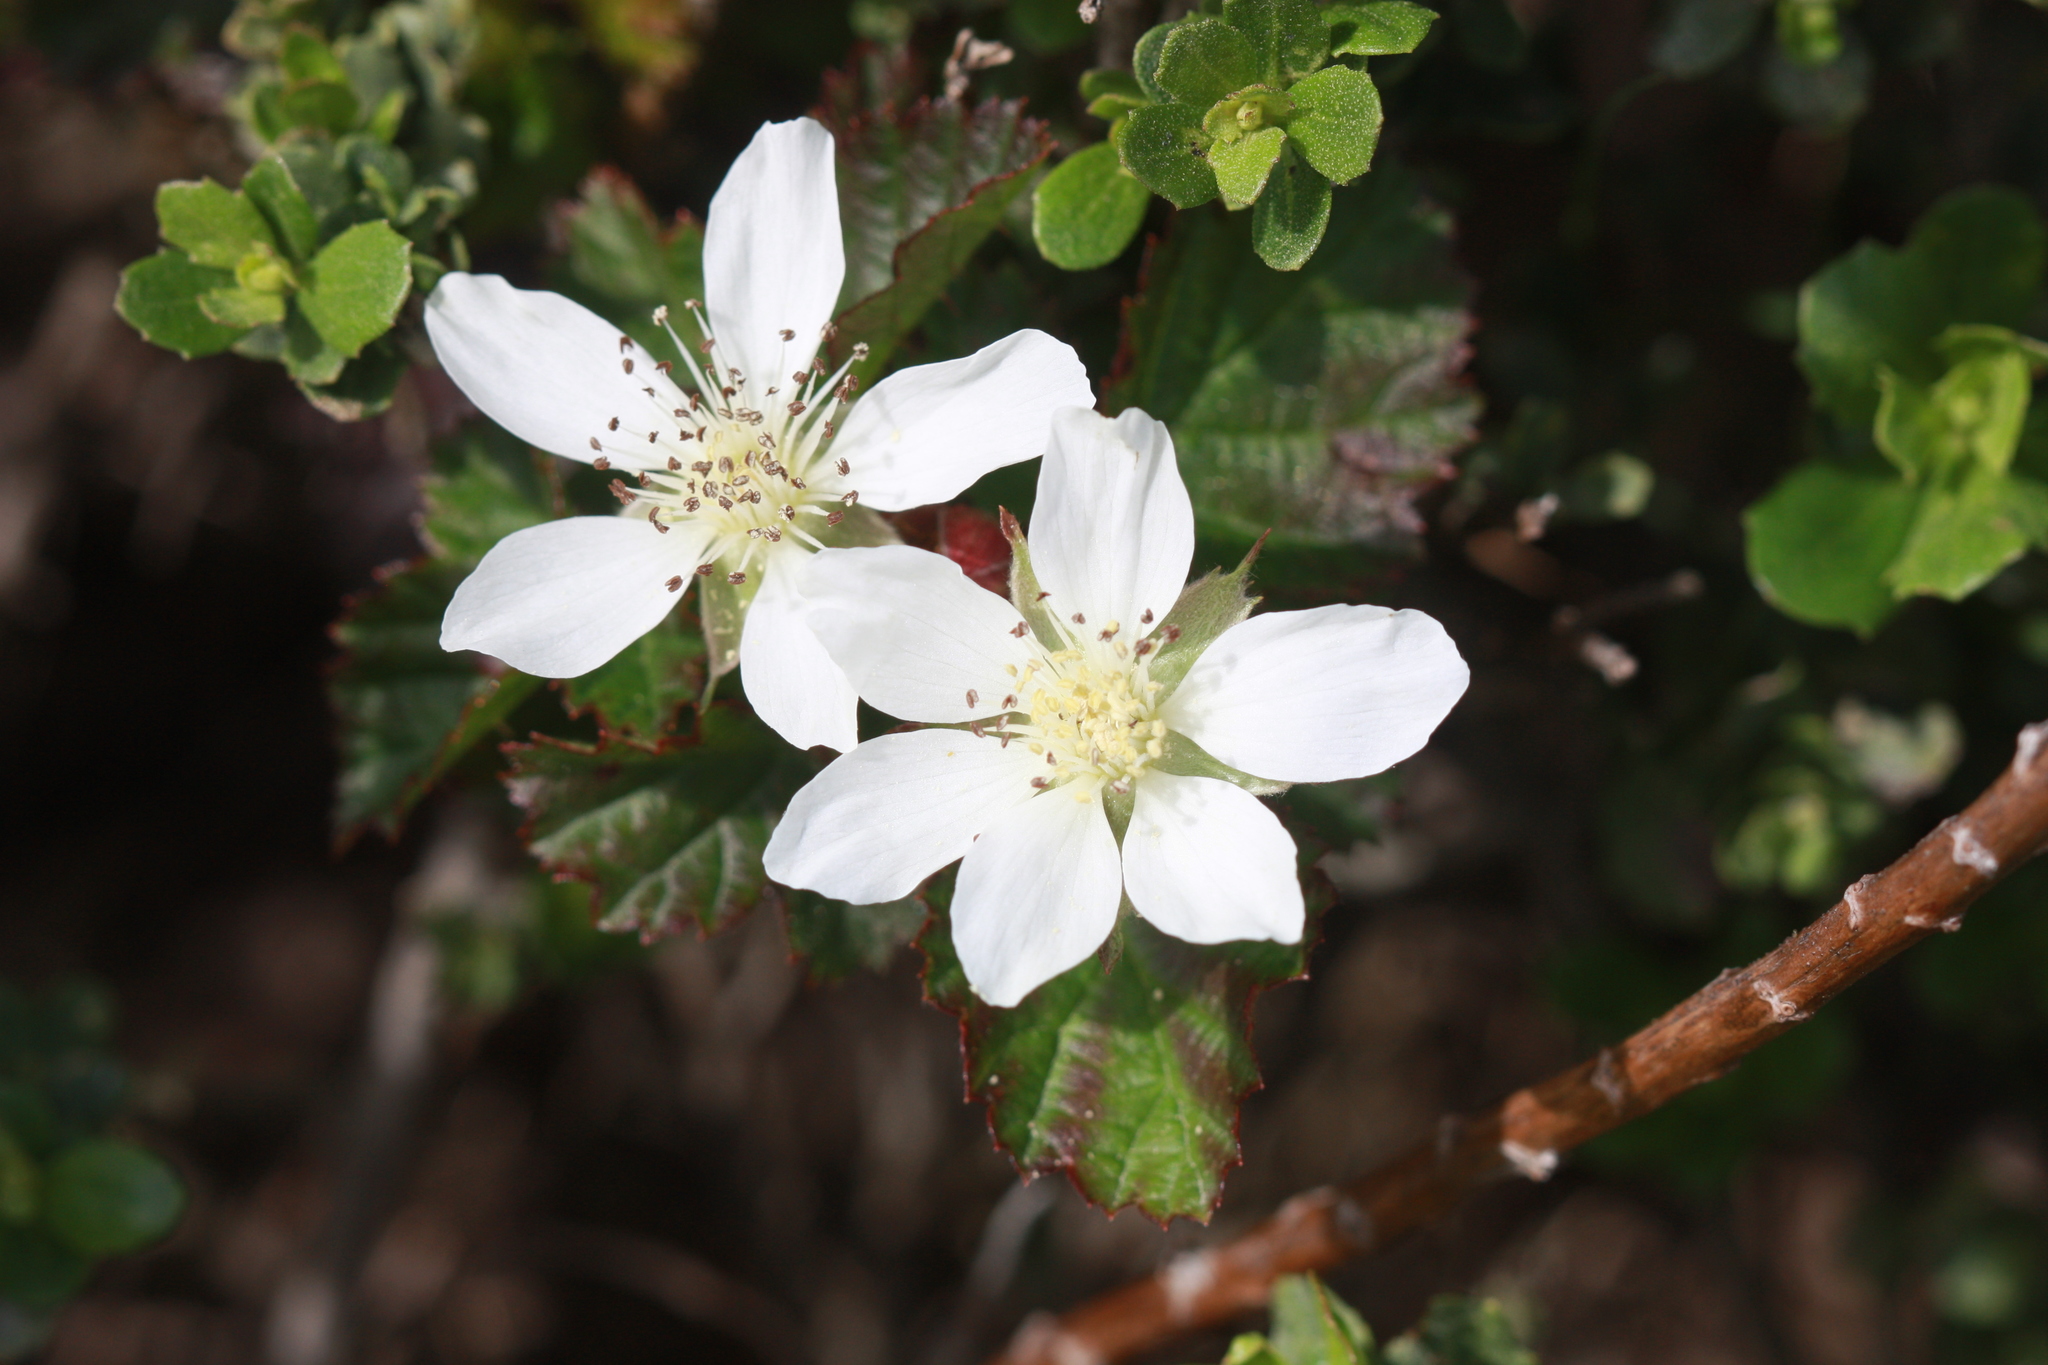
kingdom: Plantae
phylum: Tracheophyta
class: Magnoliopsida
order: Rosales
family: Rosaceae
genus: Rubus
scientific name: Rubus ursinus
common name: Pacific blackberry
